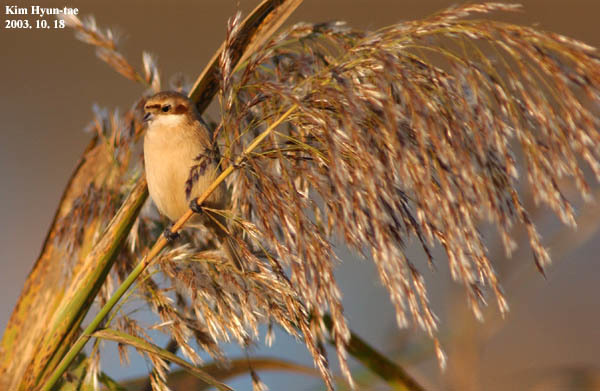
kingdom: Animalia
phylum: Chordata
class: Aves
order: Passeriformes
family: Remizidae
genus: Remiz
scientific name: Remiz consobrinus
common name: Chinese penduline tit
